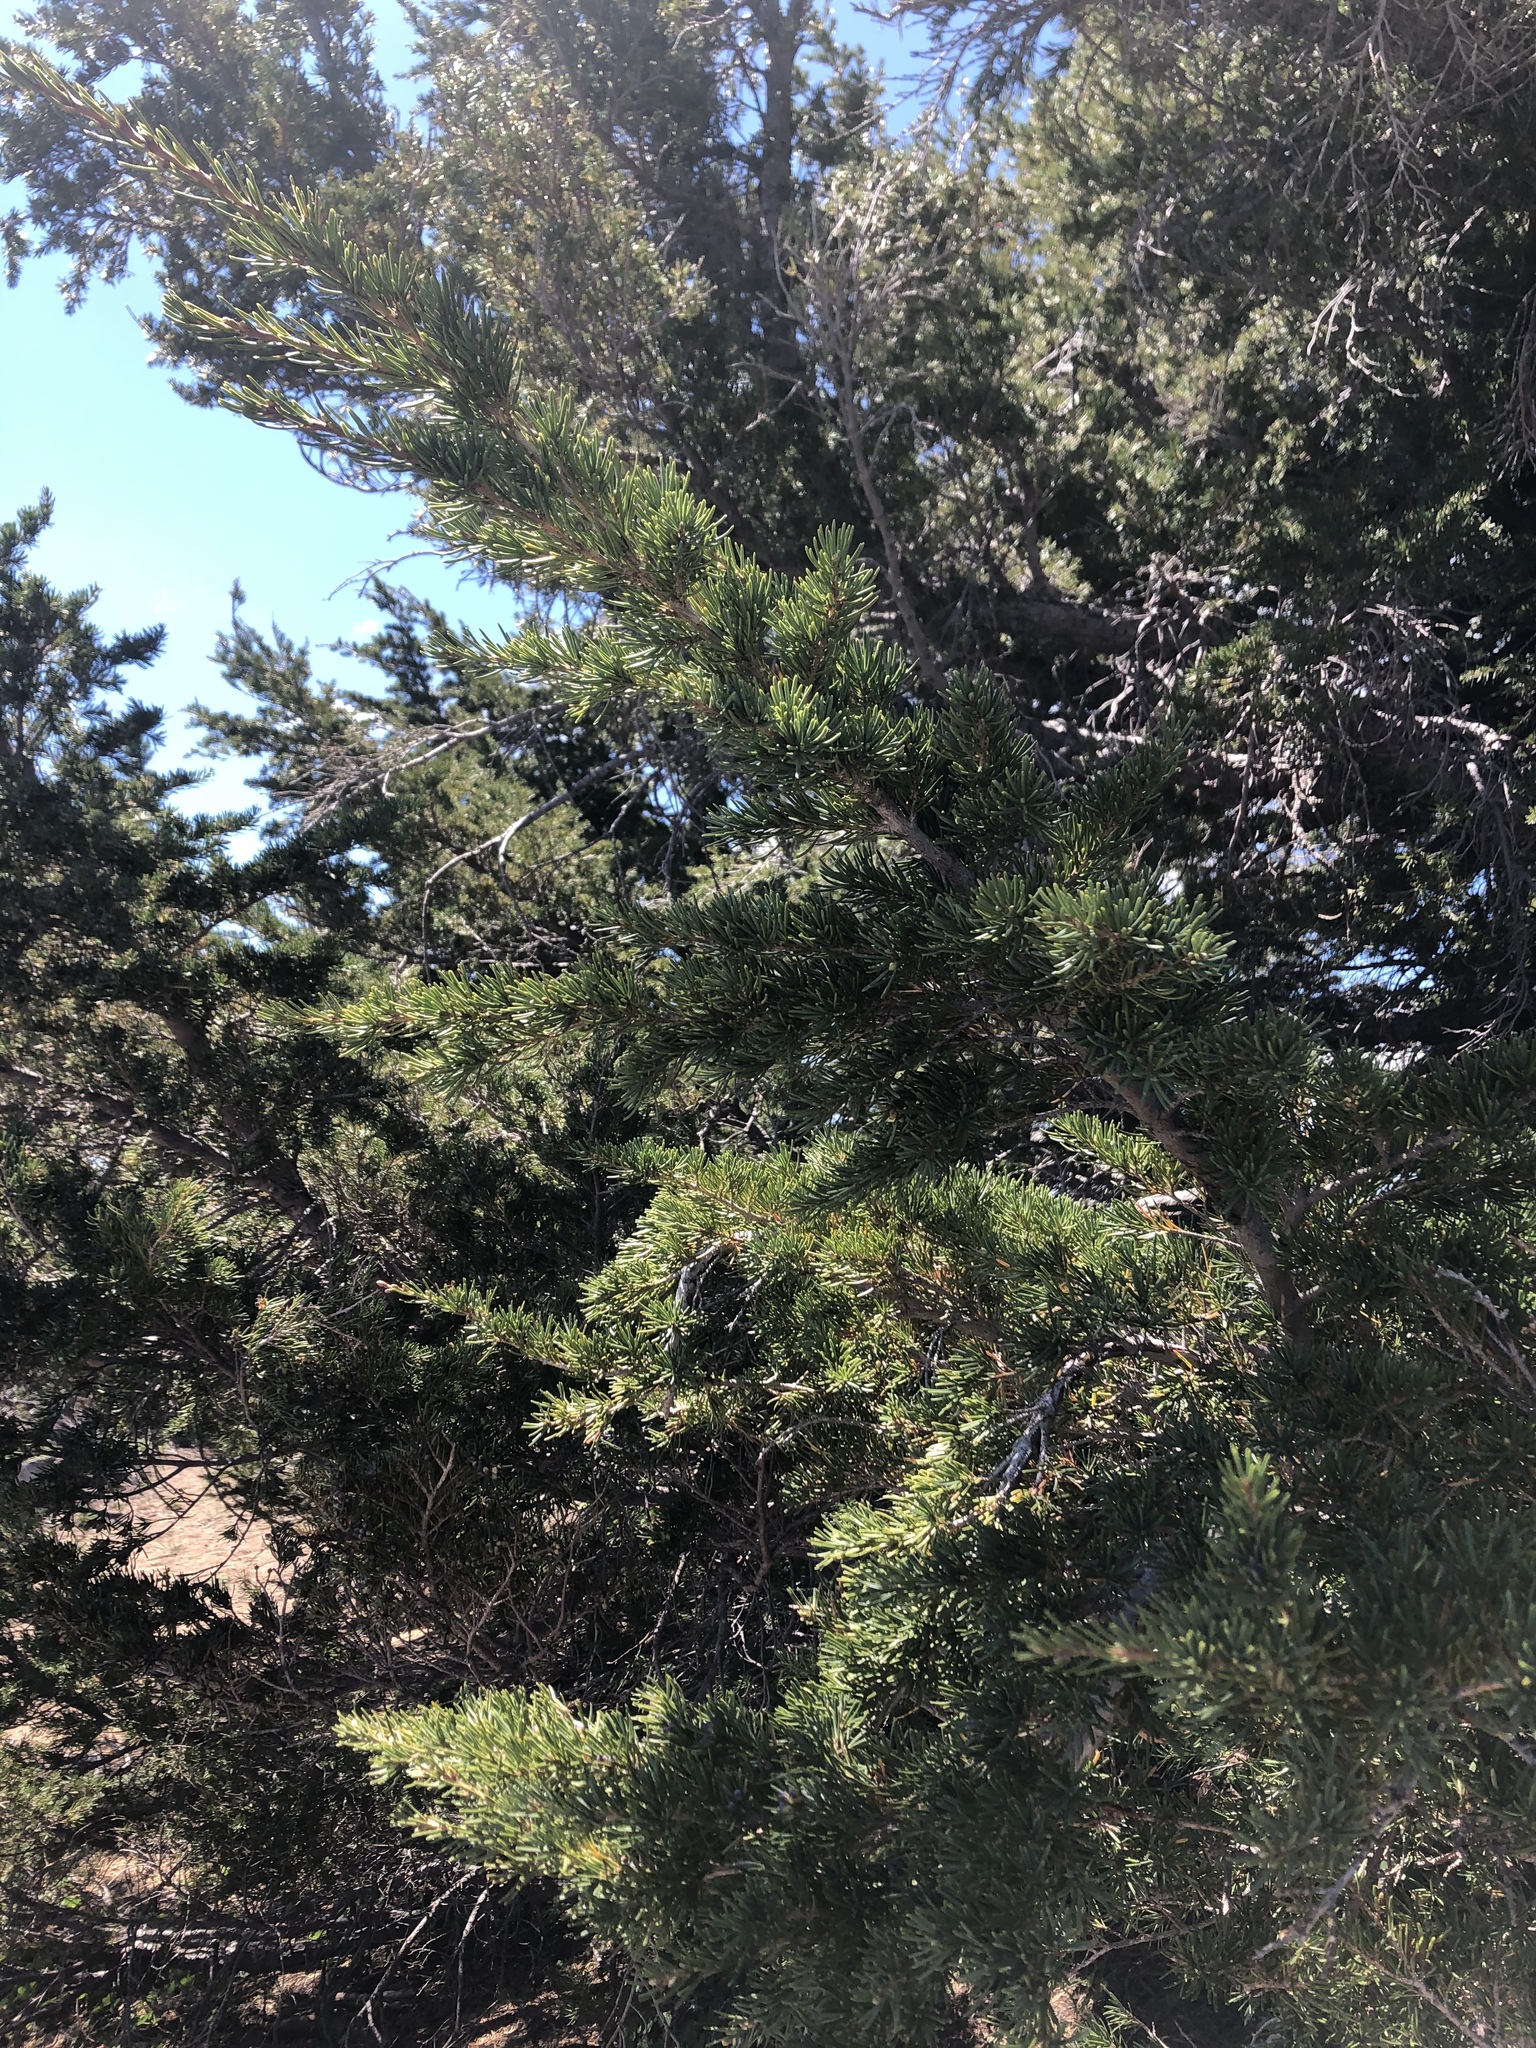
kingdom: Plantae
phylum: Tracheophyta
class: Pinopsida
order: Pinales
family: Pinaceae
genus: Tsuga
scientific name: Tsuga mertensiana
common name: Mountain hemlock
